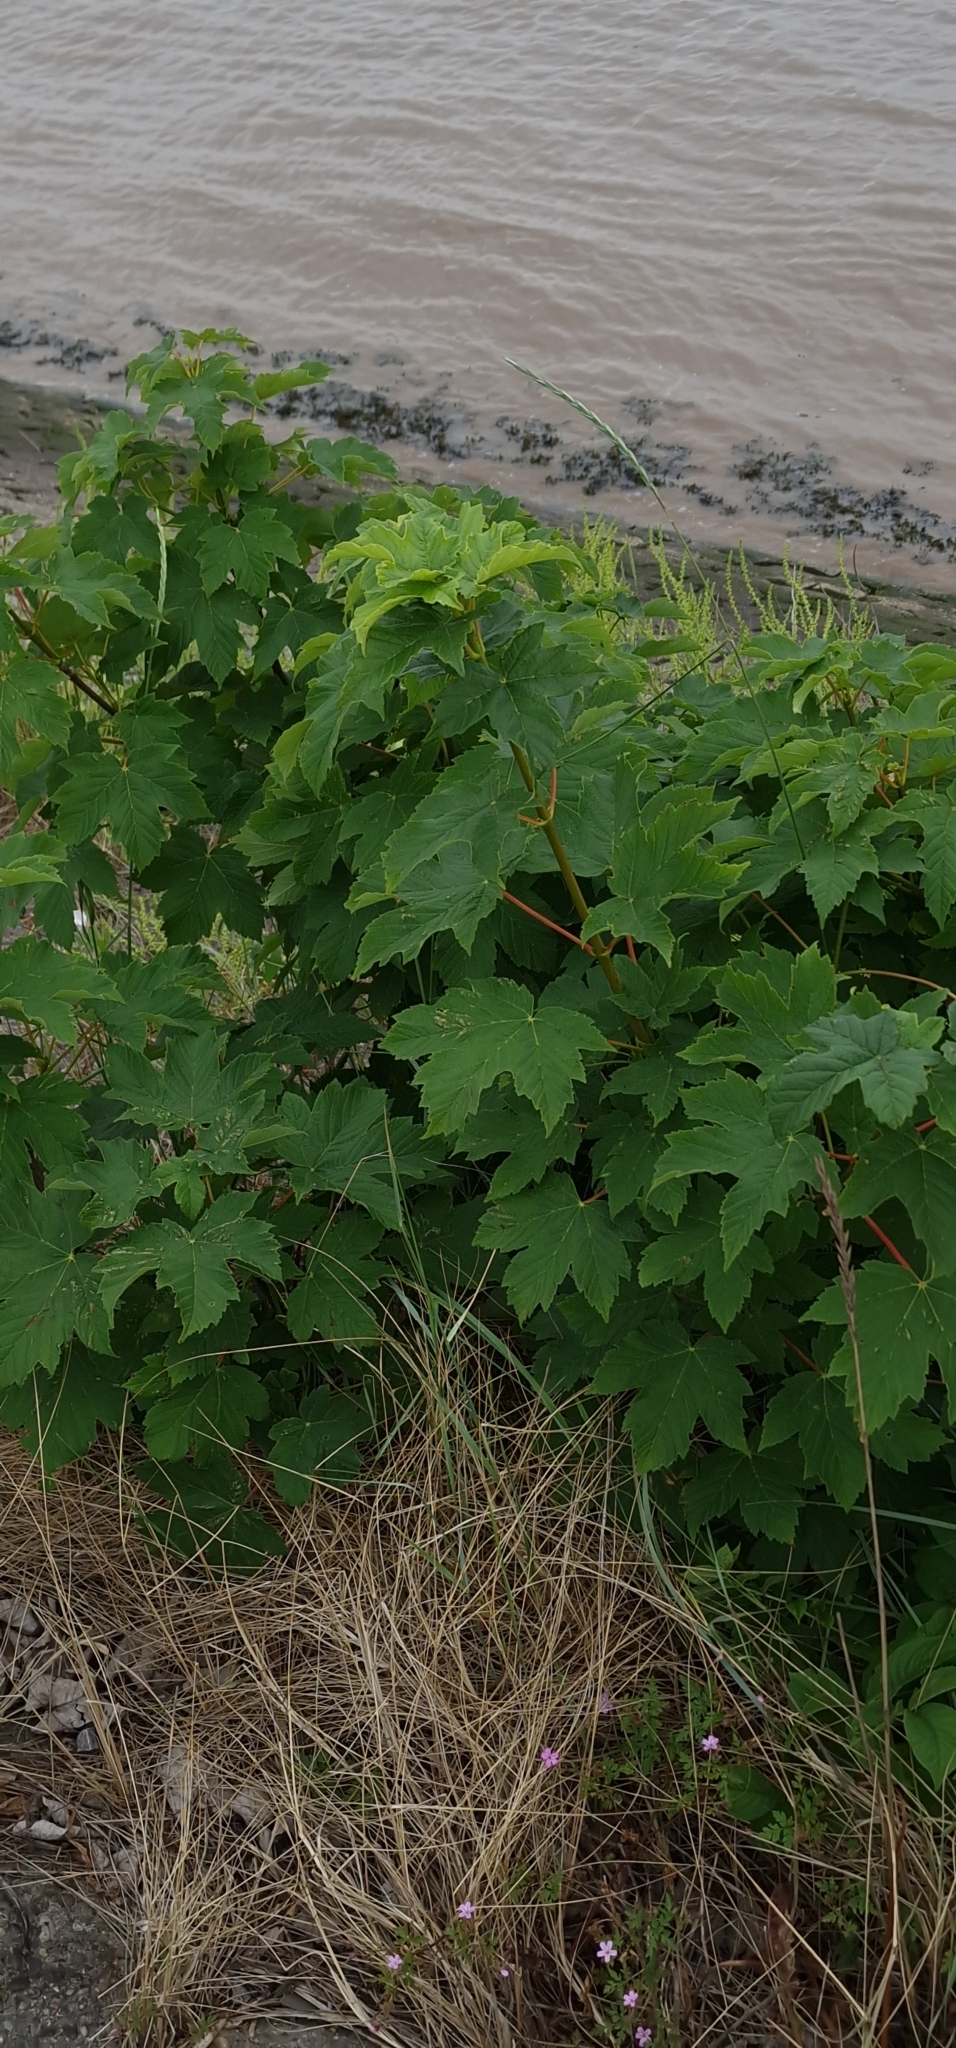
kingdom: Plantae
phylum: Tracheophyta
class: Magnoliopsida
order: Sapindales
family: Sapindaceae
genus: Acer
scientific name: Acer pseudoplatanus
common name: Sycamore
